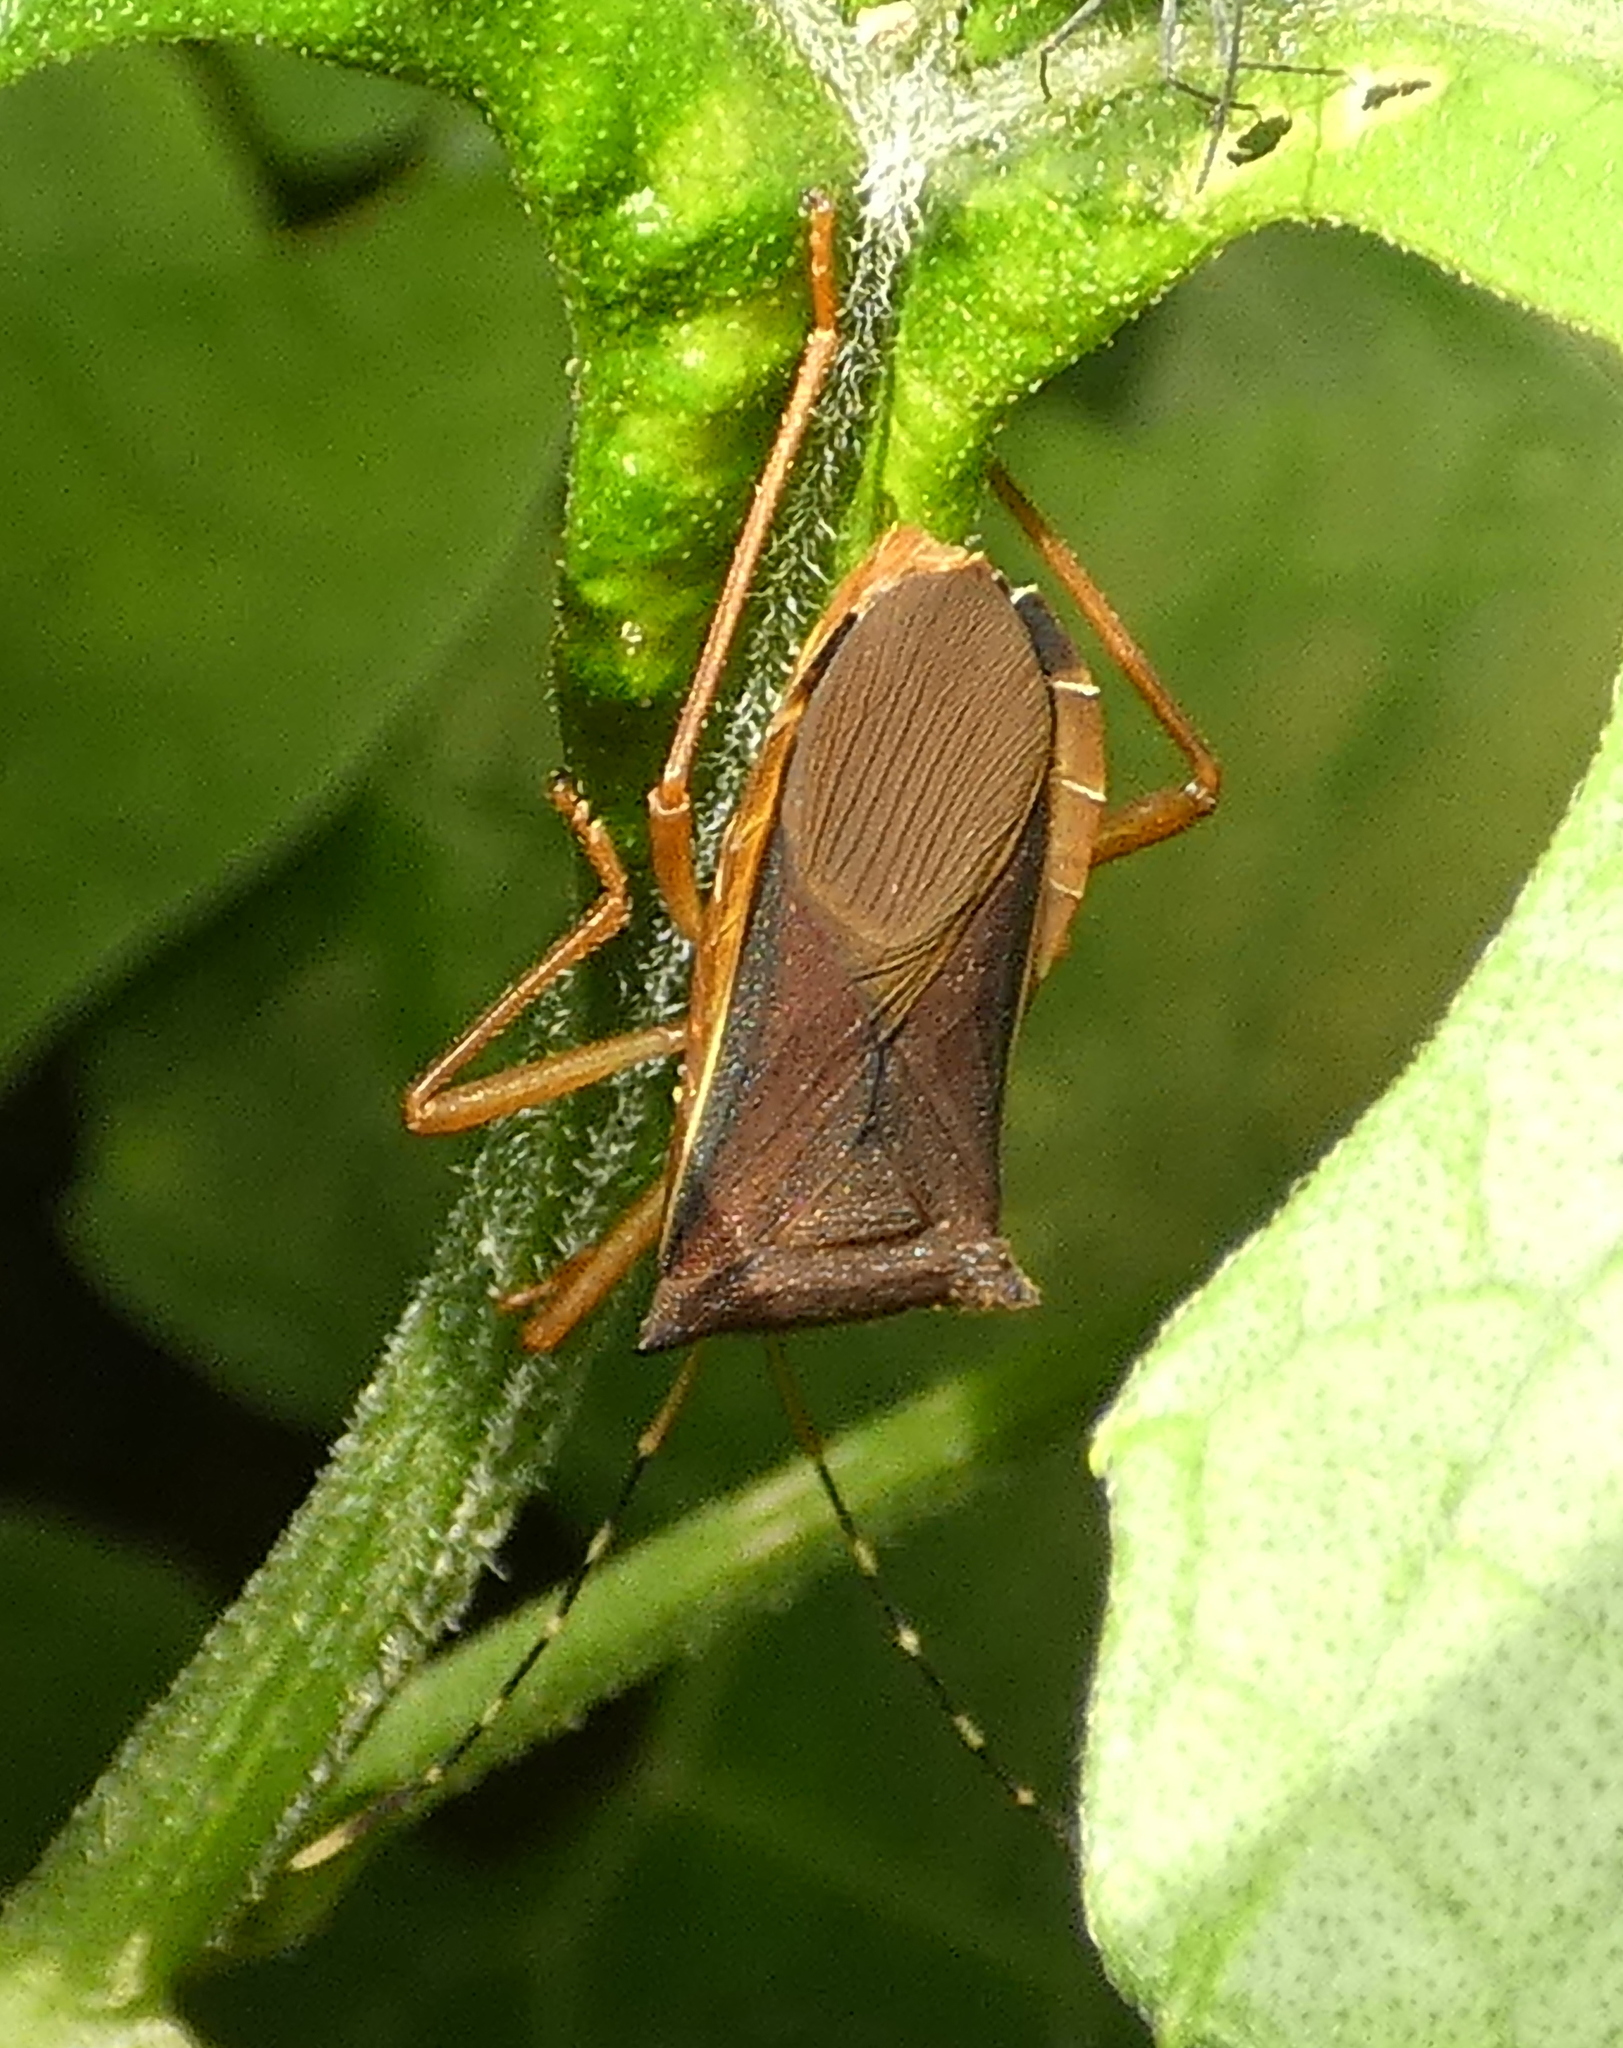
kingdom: Animalia
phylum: Arthropoda
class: Insecta
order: Hemiptera
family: Coreidae
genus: Anasa
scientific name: Anasa varicornis
